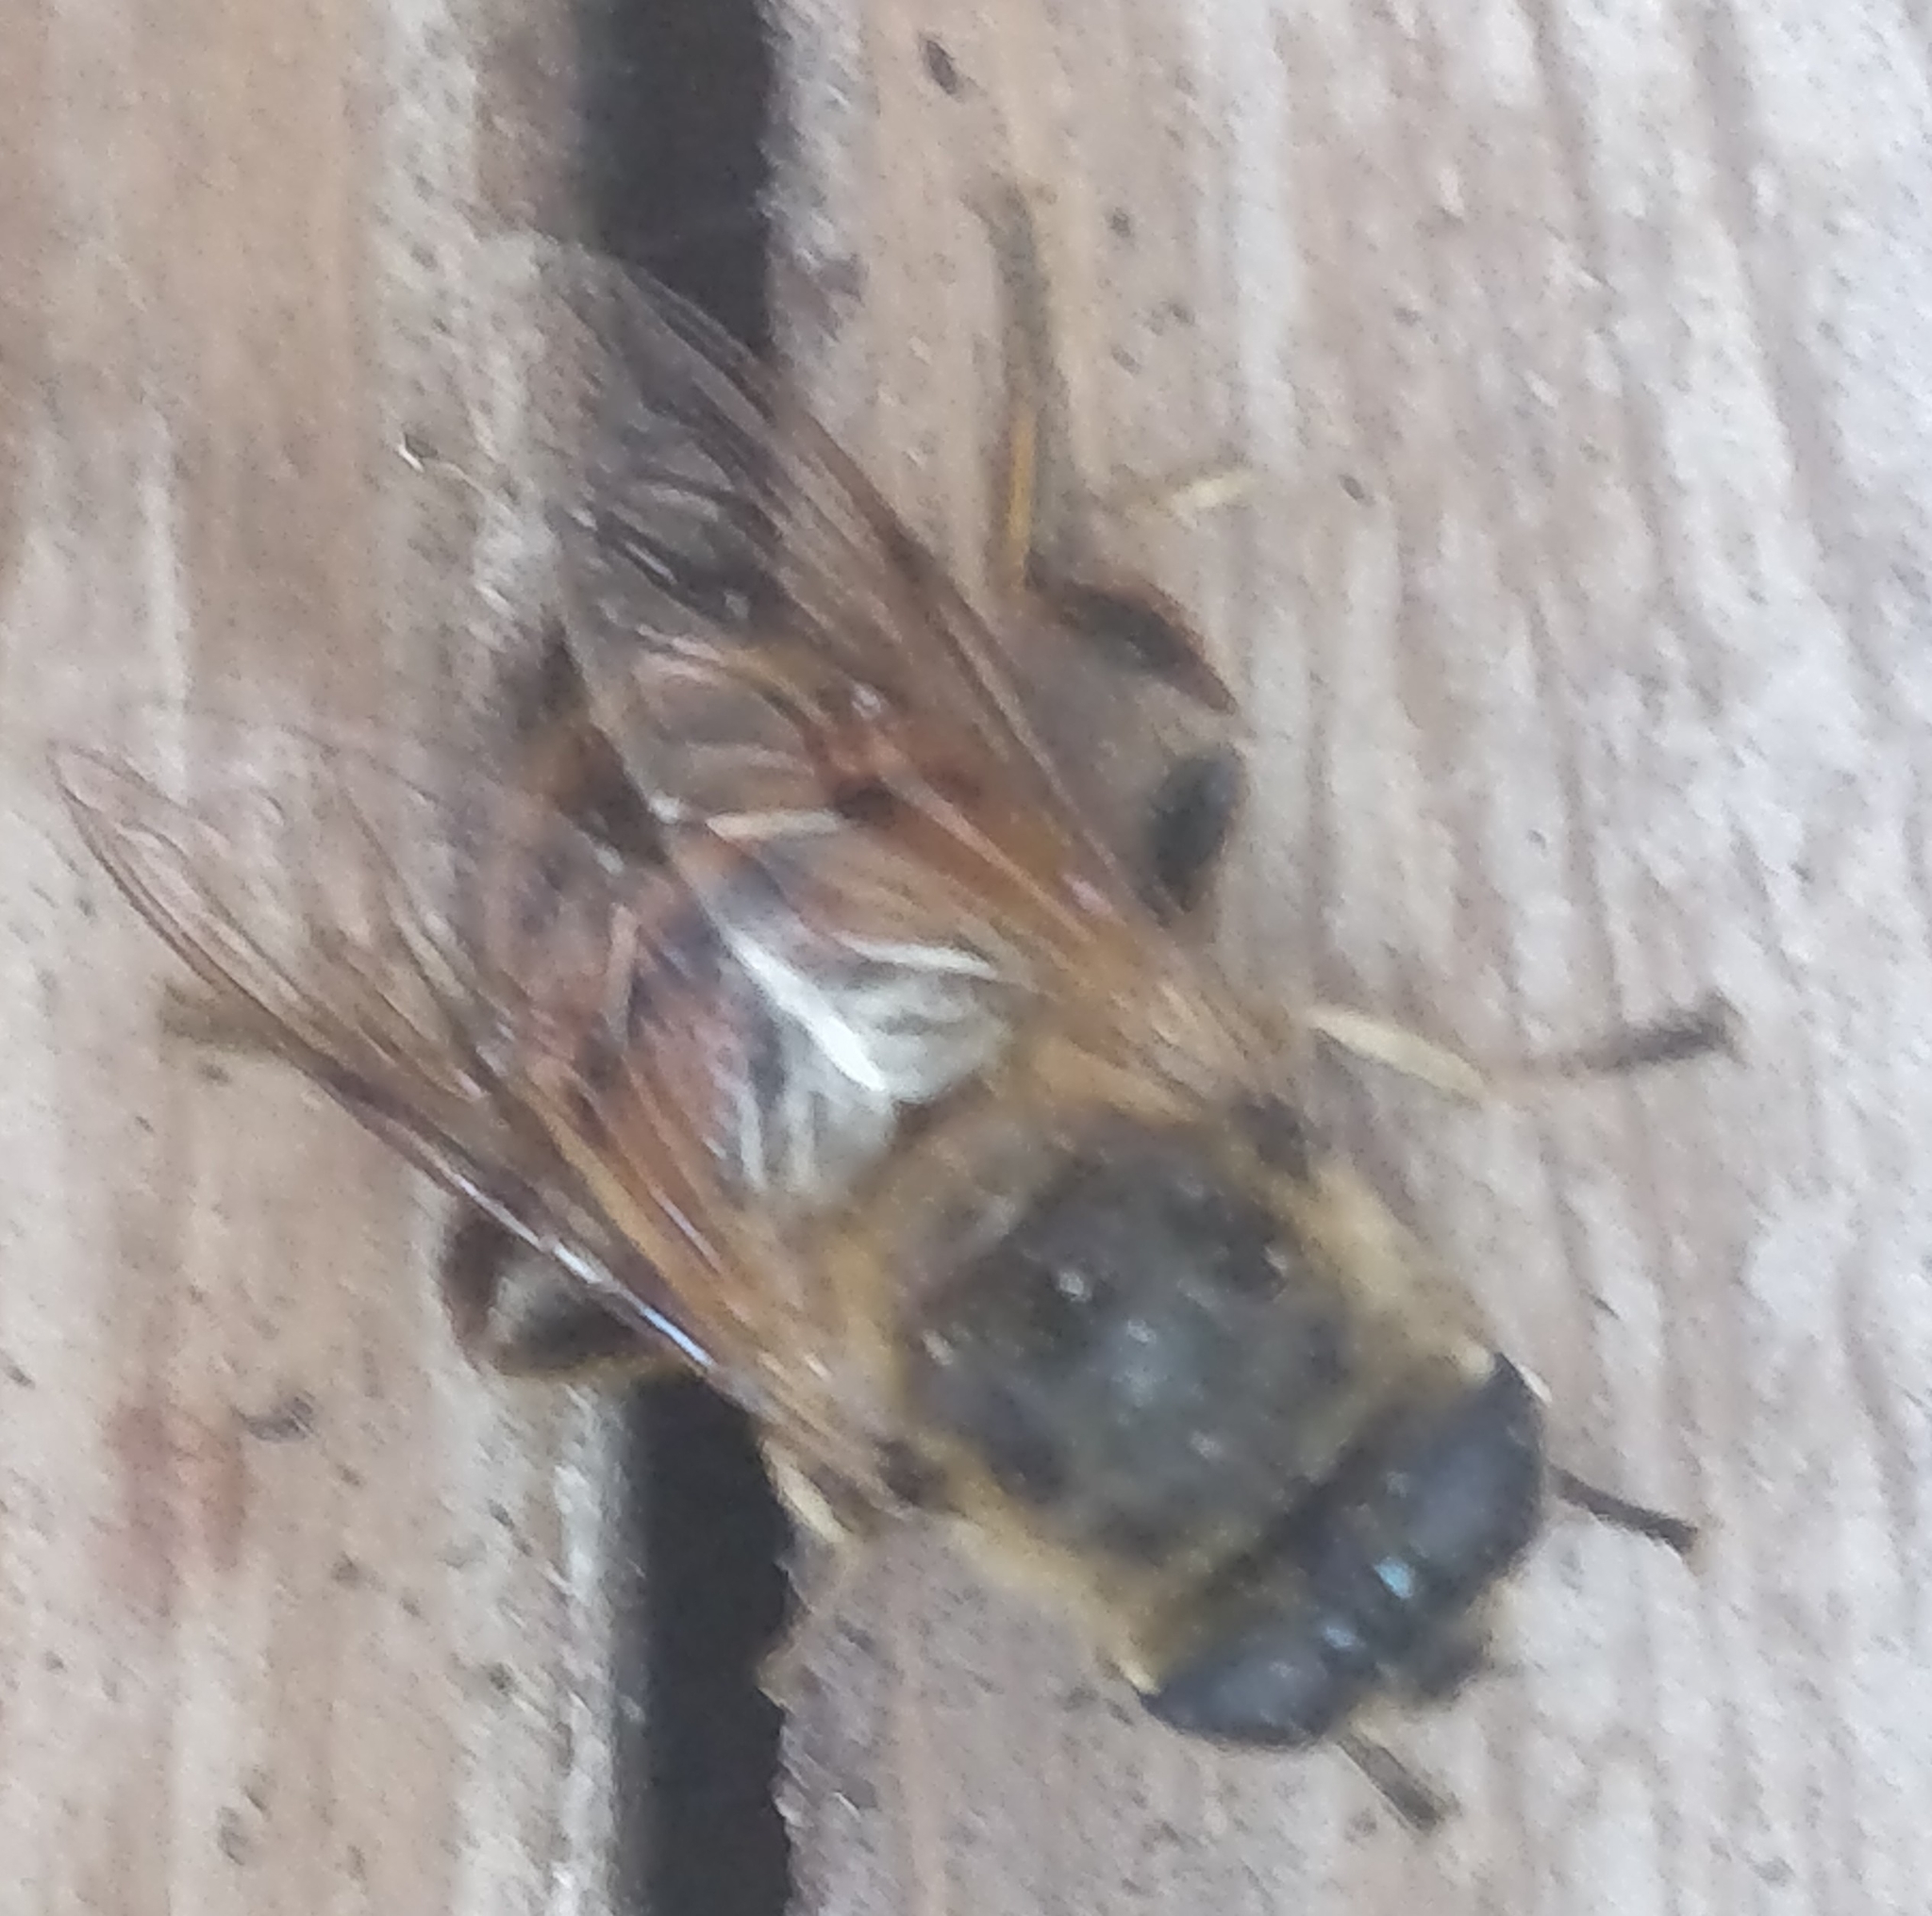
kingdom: Animalia
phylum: Arthropoda
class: Insecta
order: Diptera
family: Syrphidae
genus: Eristalis
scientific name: Eristalis tenax
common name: Drone fly
